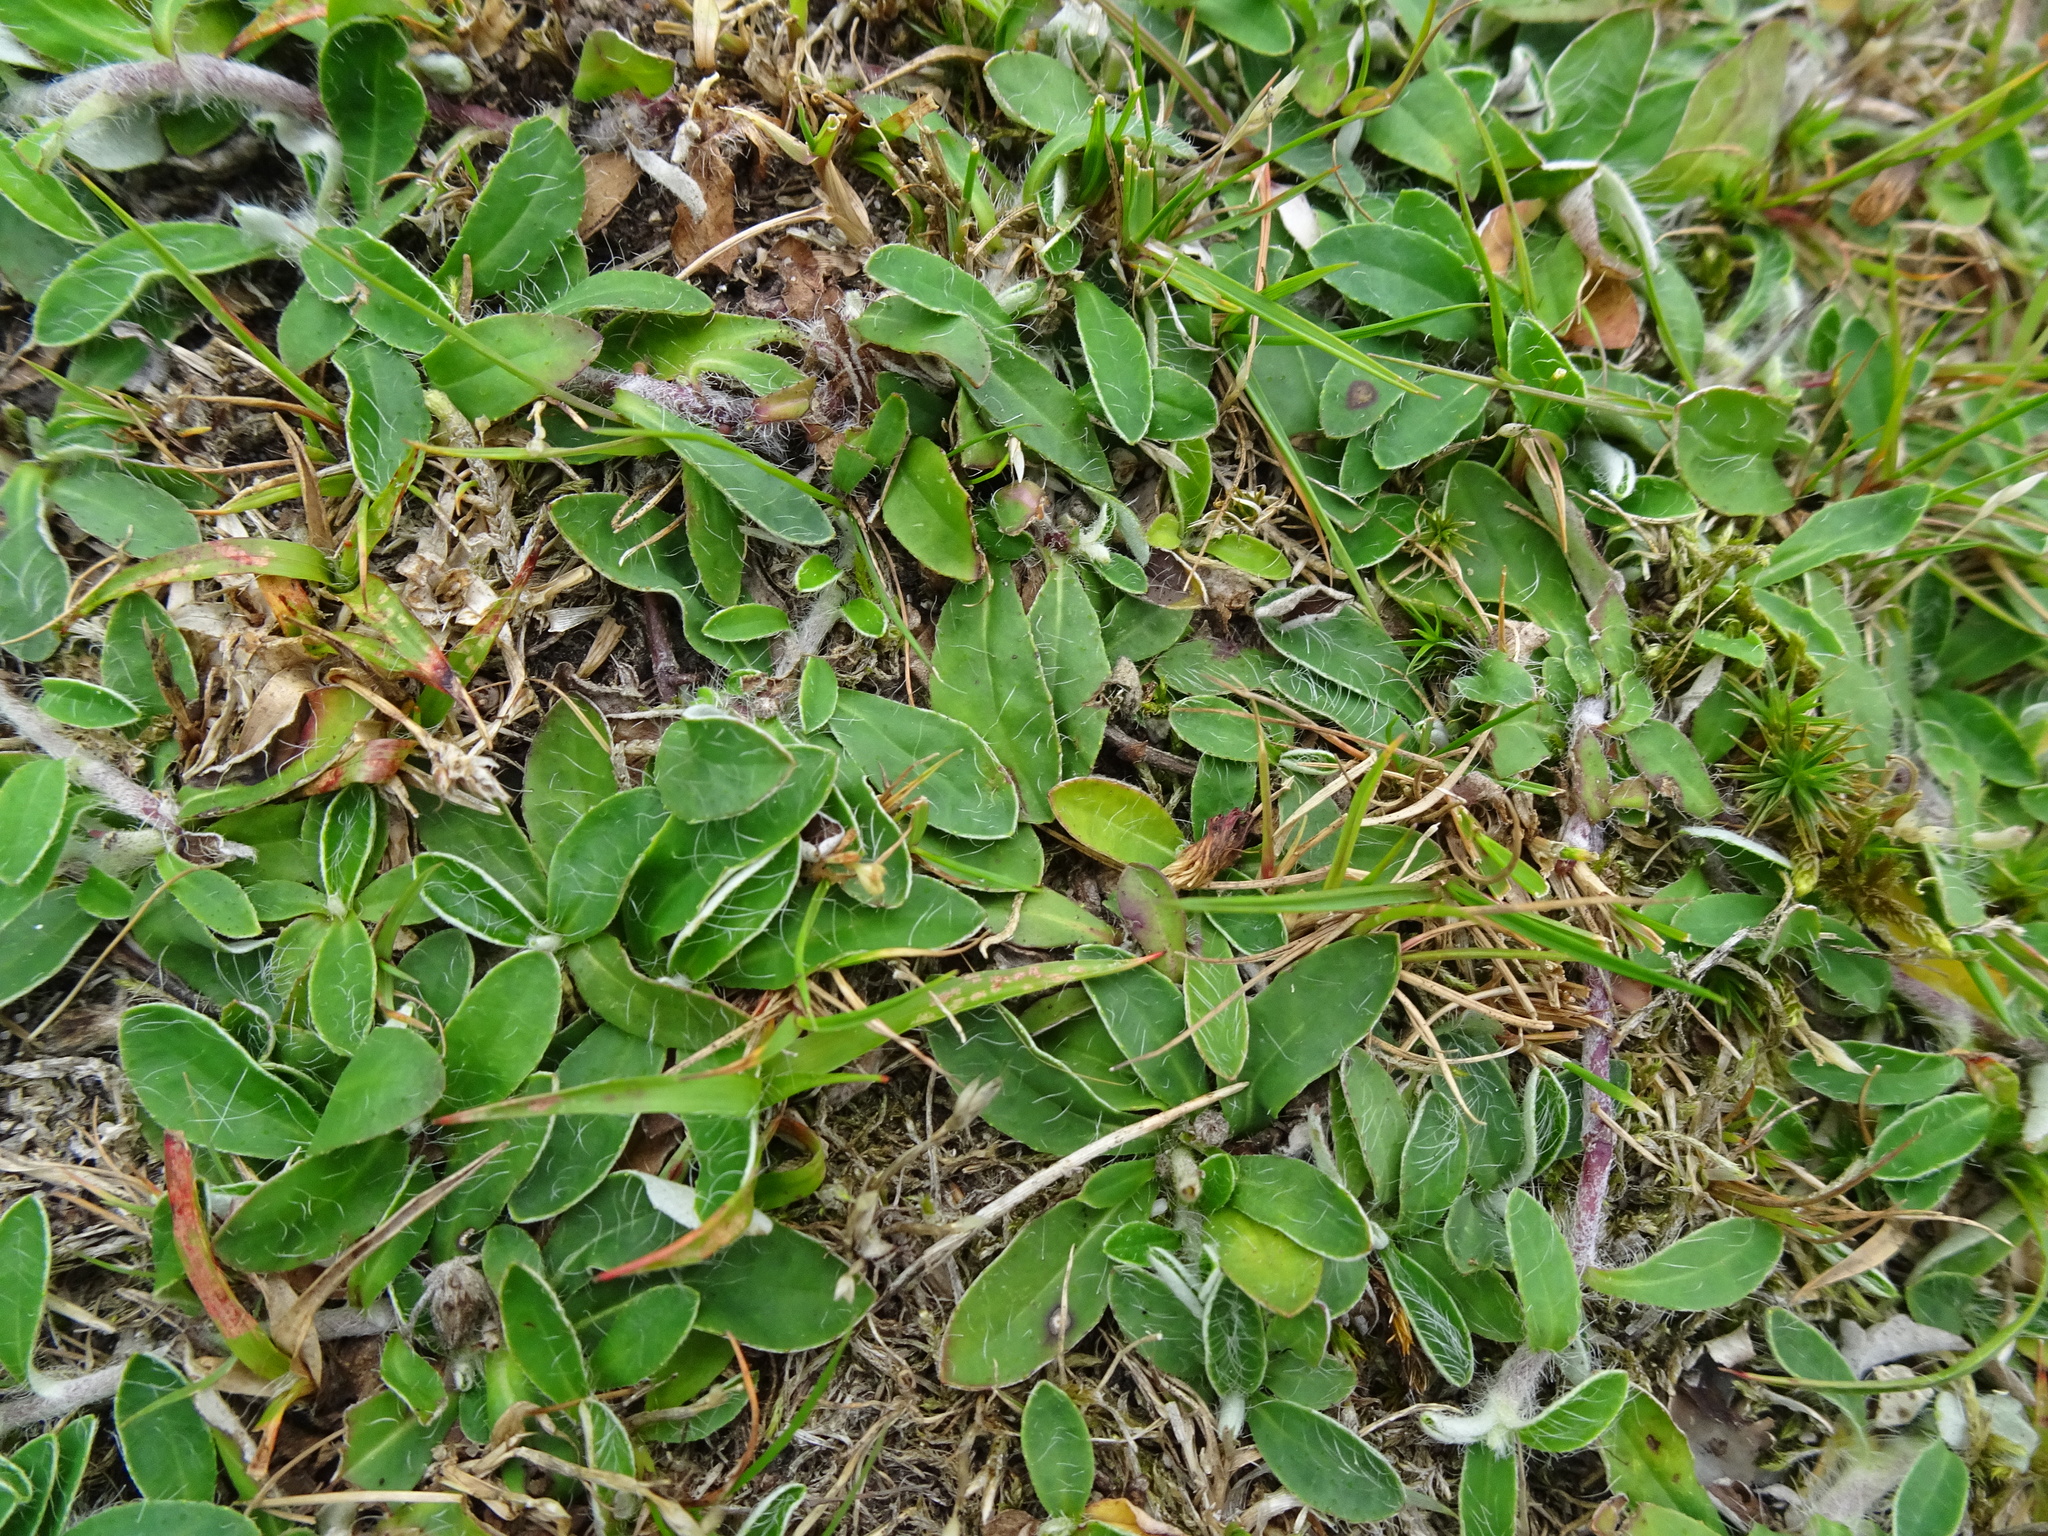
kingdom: Plantae
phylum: Tracheophyta
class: Magnoliopsida
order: Asterales
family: Asteraceae
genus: Pilosella
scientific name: Pilosella officinarum
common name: Mouse-ear hawkweed
